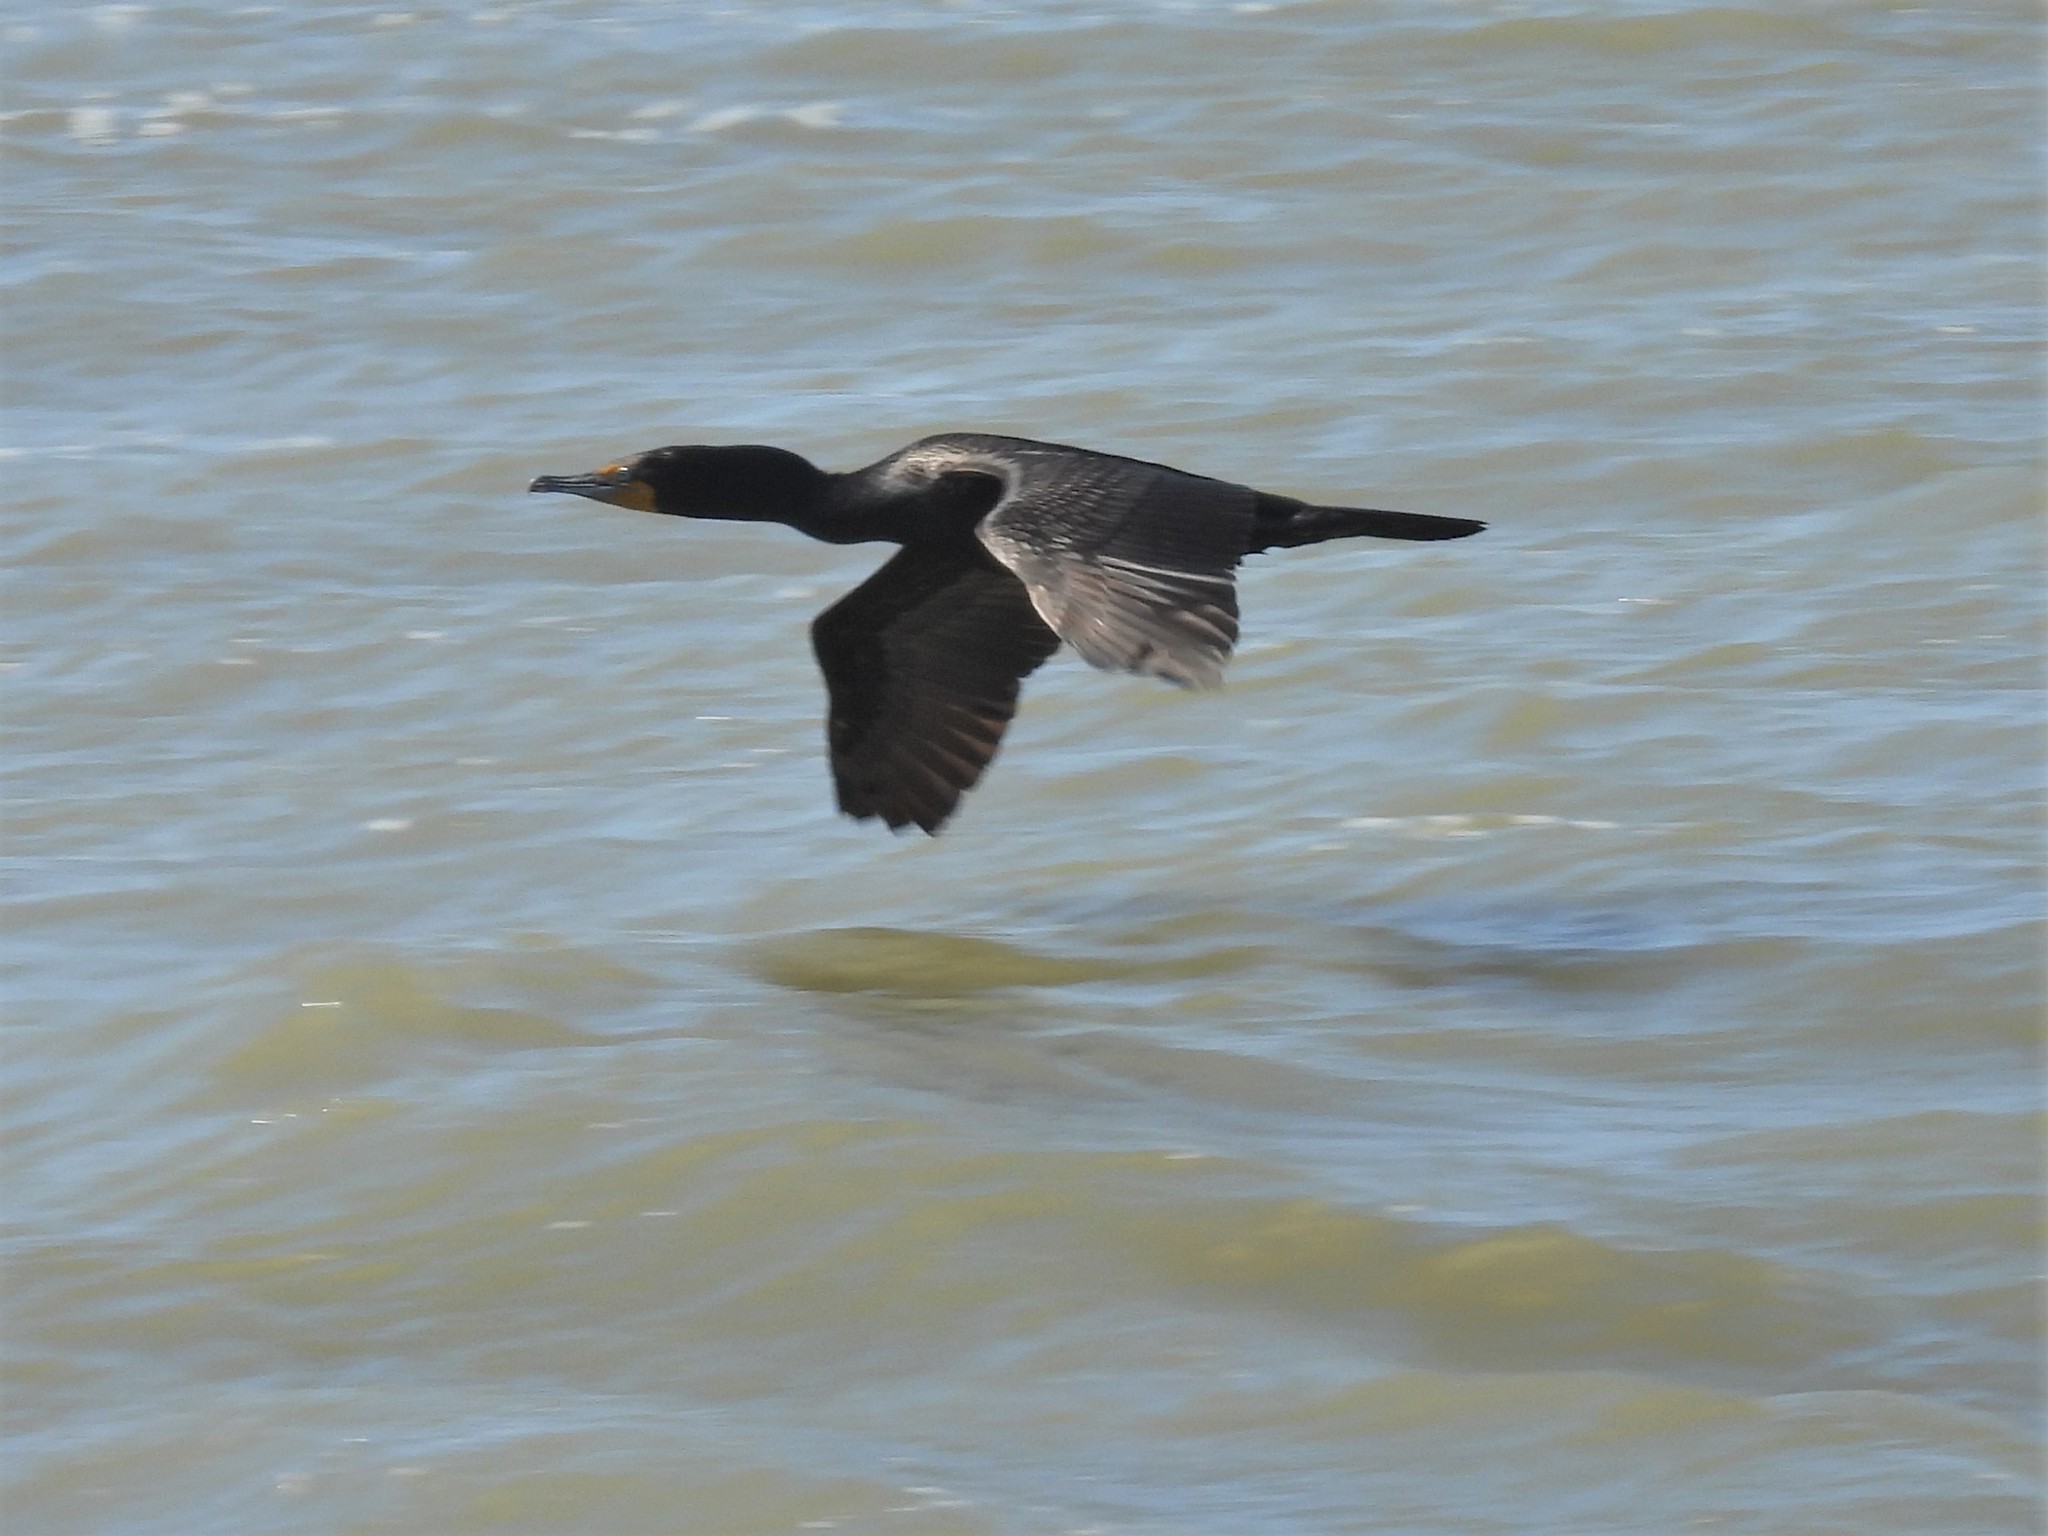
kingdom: Animalia
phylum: Chordata
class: Aves
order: Suliformes
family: Phalacrocoracidae
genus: Phalacrocorax
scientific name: Phalacrocorax auritus
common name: Double-crested cormorant
